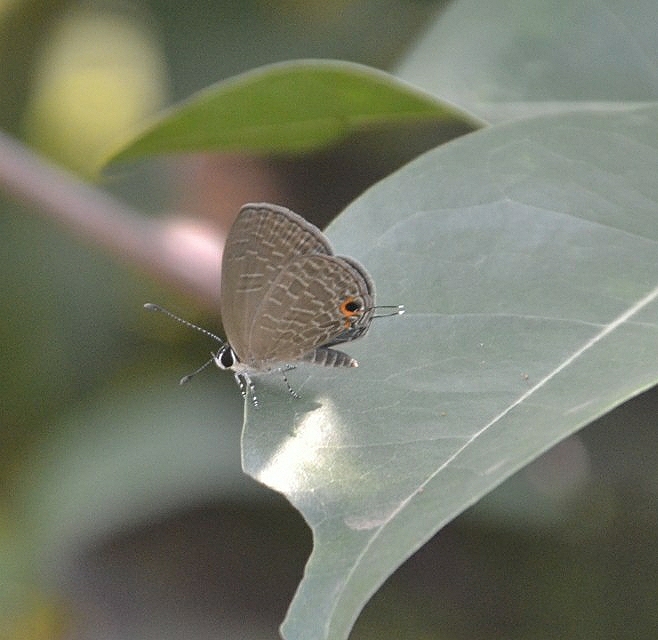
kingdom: Animalia
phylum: Arthropoda
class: Insecta
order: Lepidoptera
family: Lycaenidae
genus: Jamides
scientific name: Jamides bochus
